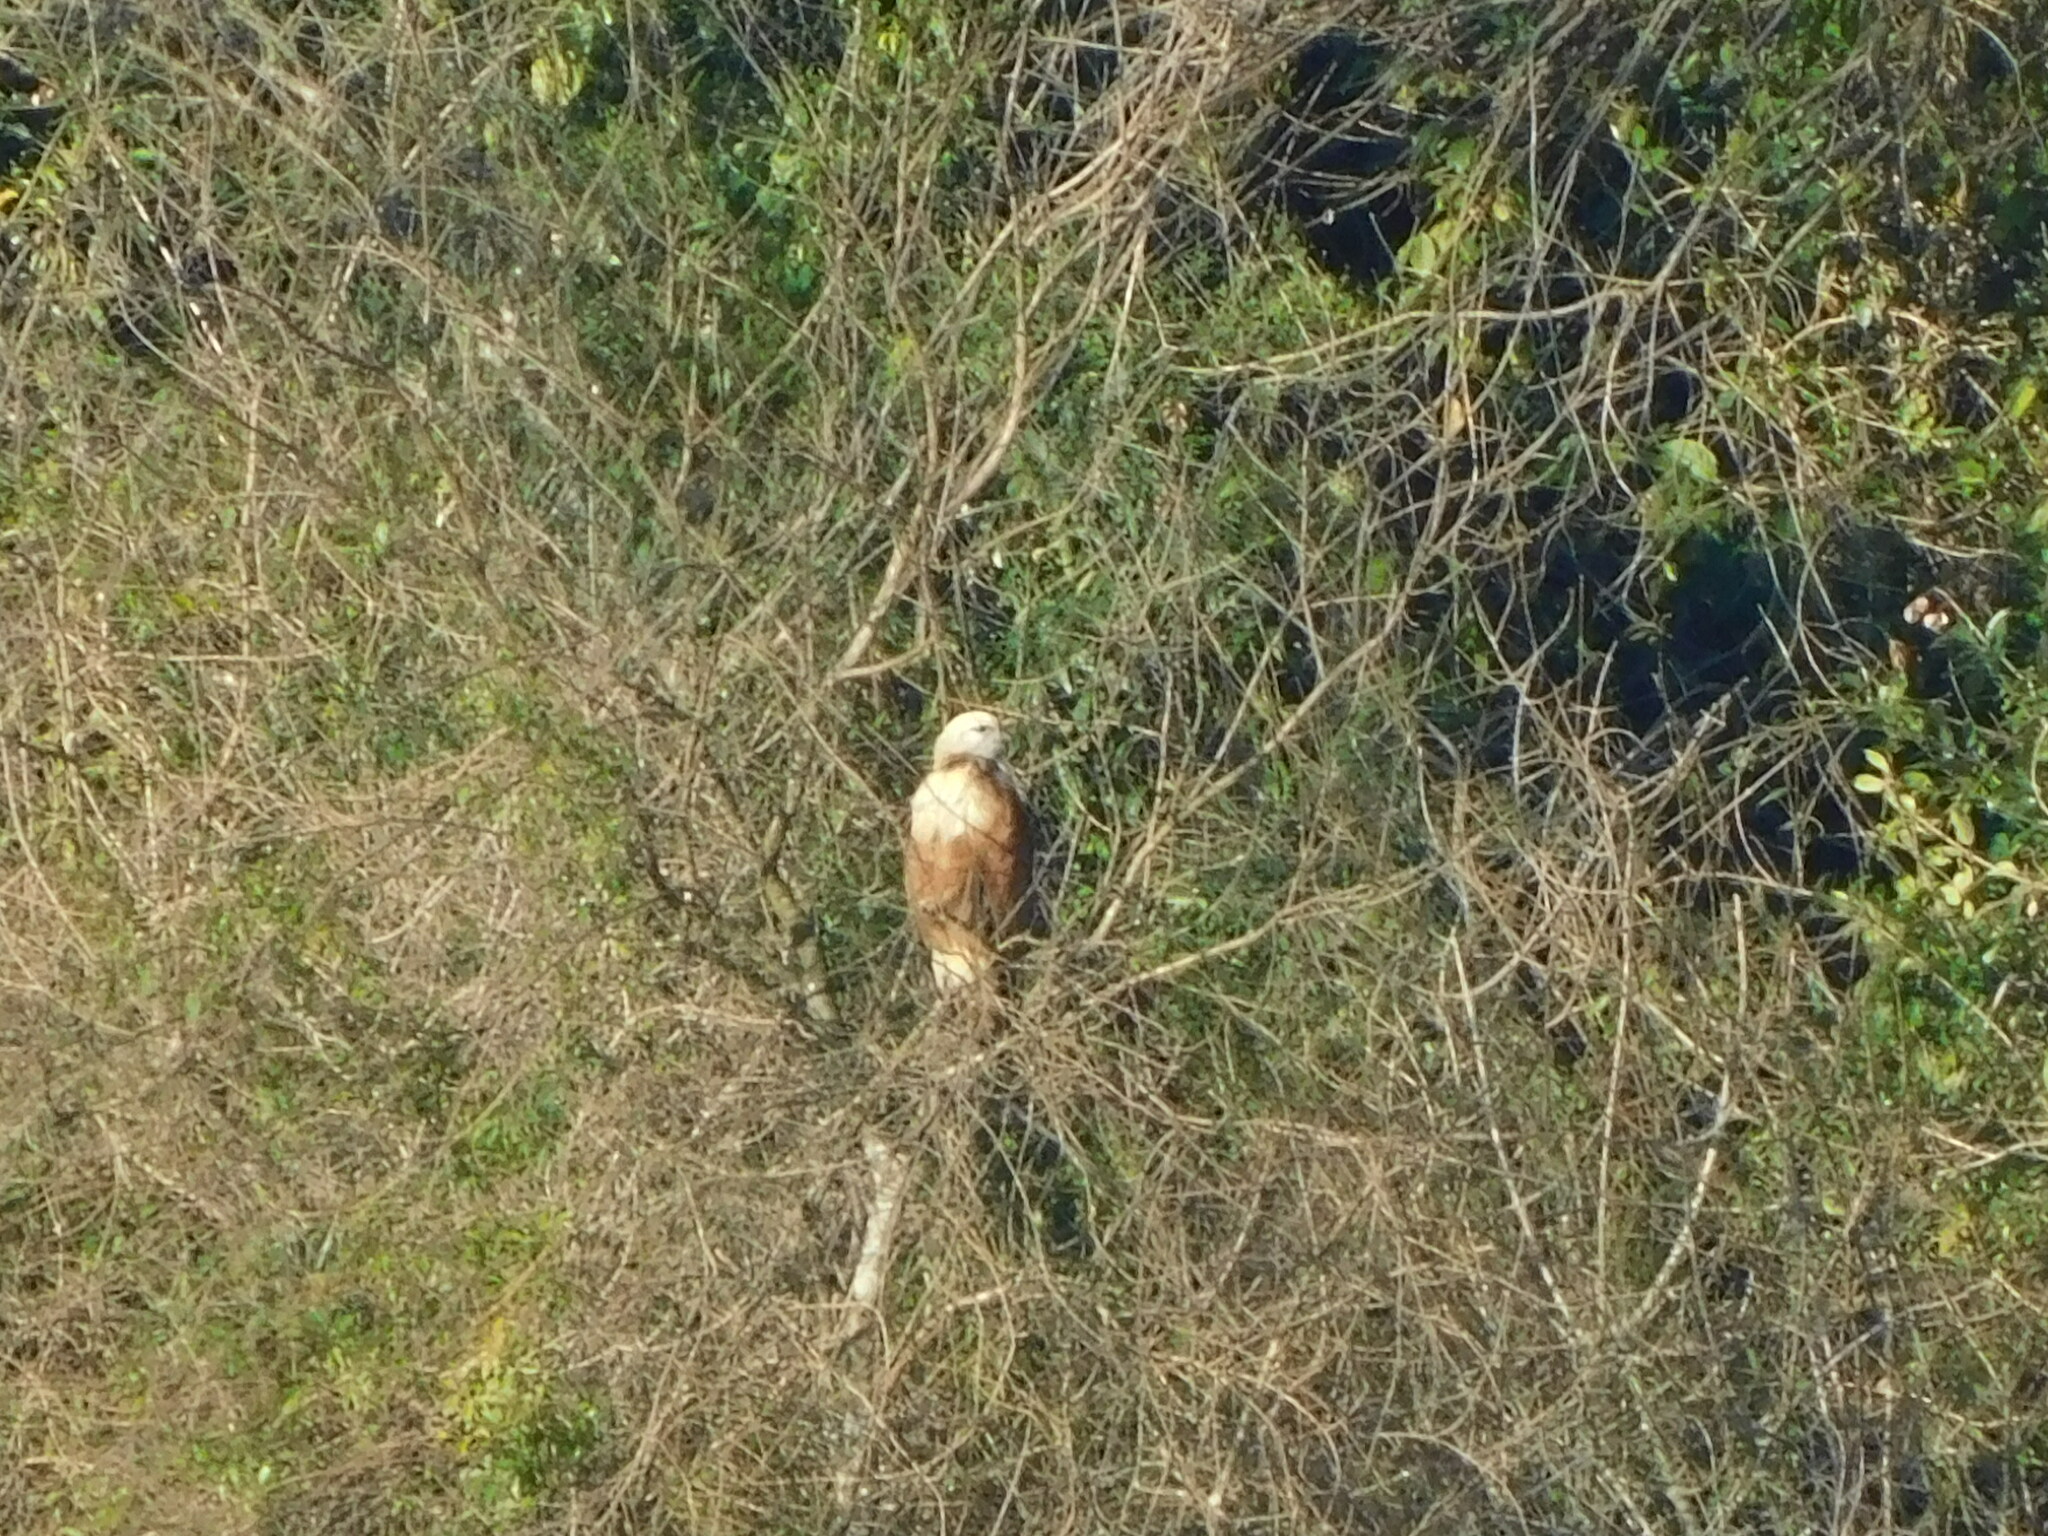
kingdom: Animalia
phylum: Chordata
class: Aves
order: Accipitriformes
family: Accipitridae
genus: Busarellus
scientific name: Busarellus nigricollis
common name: Black-collared hawk
